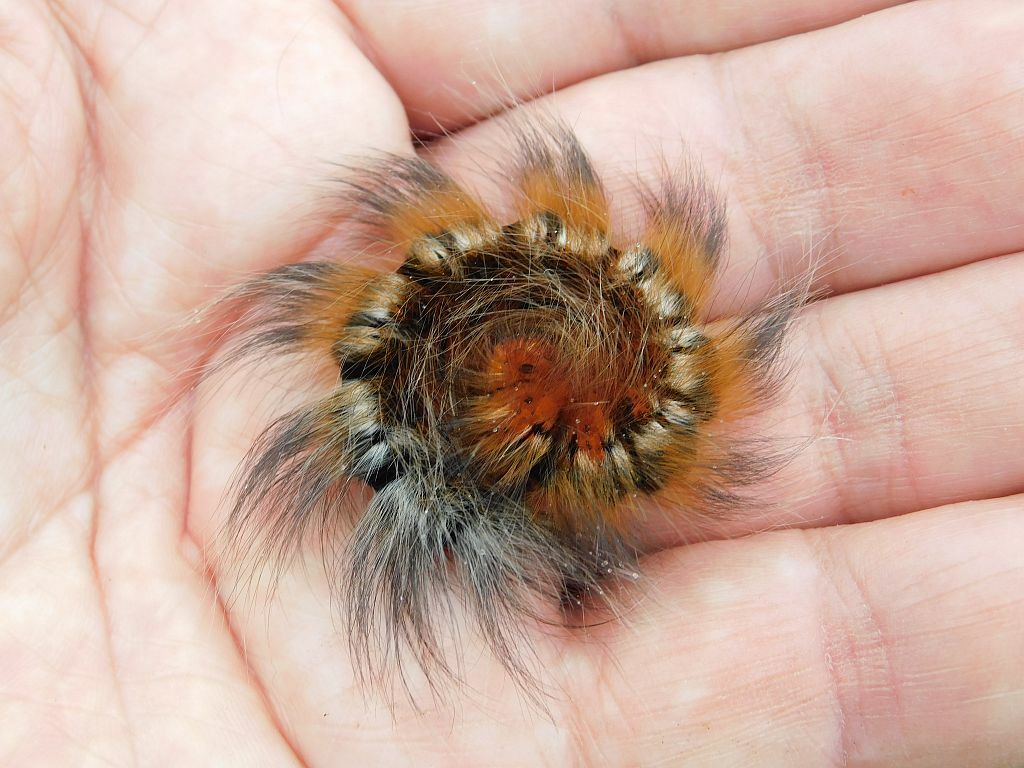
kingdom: Animalia
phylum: Arthropoda
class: Insecta
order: Lepidoptera
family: Lasiocampidae
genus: Mesocelis
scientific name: Mesocelis monticola
